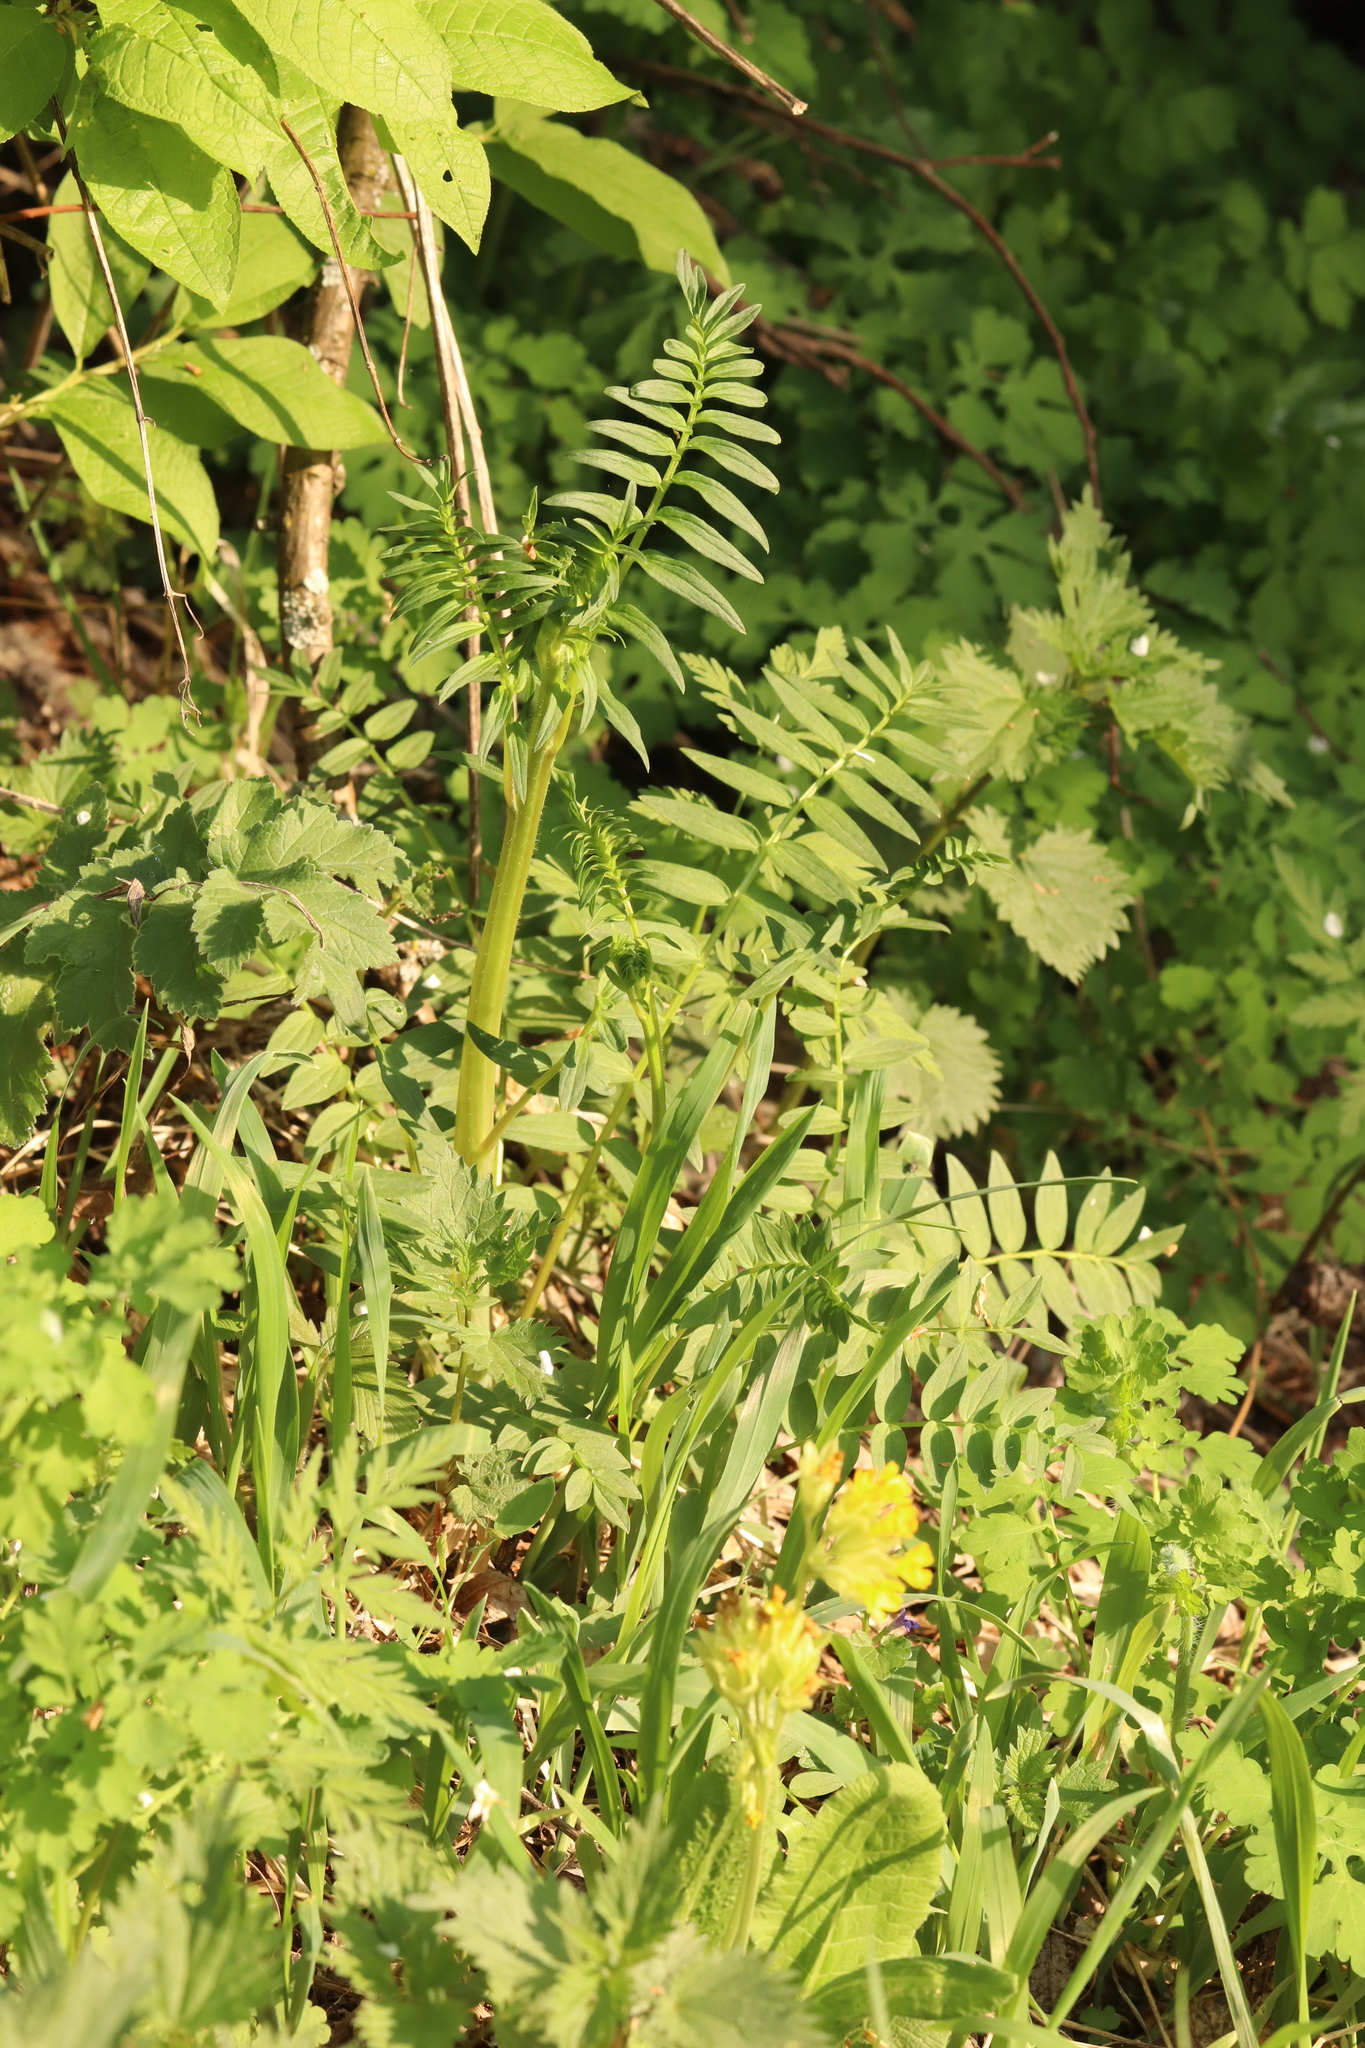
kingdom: Plantae
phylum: Tracheophyta
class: Magnoliopsida
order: Ericales
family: Polemoniaceae
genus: Polemonium
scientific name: Polemonium caeruleum
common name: Jacob's-ladder
